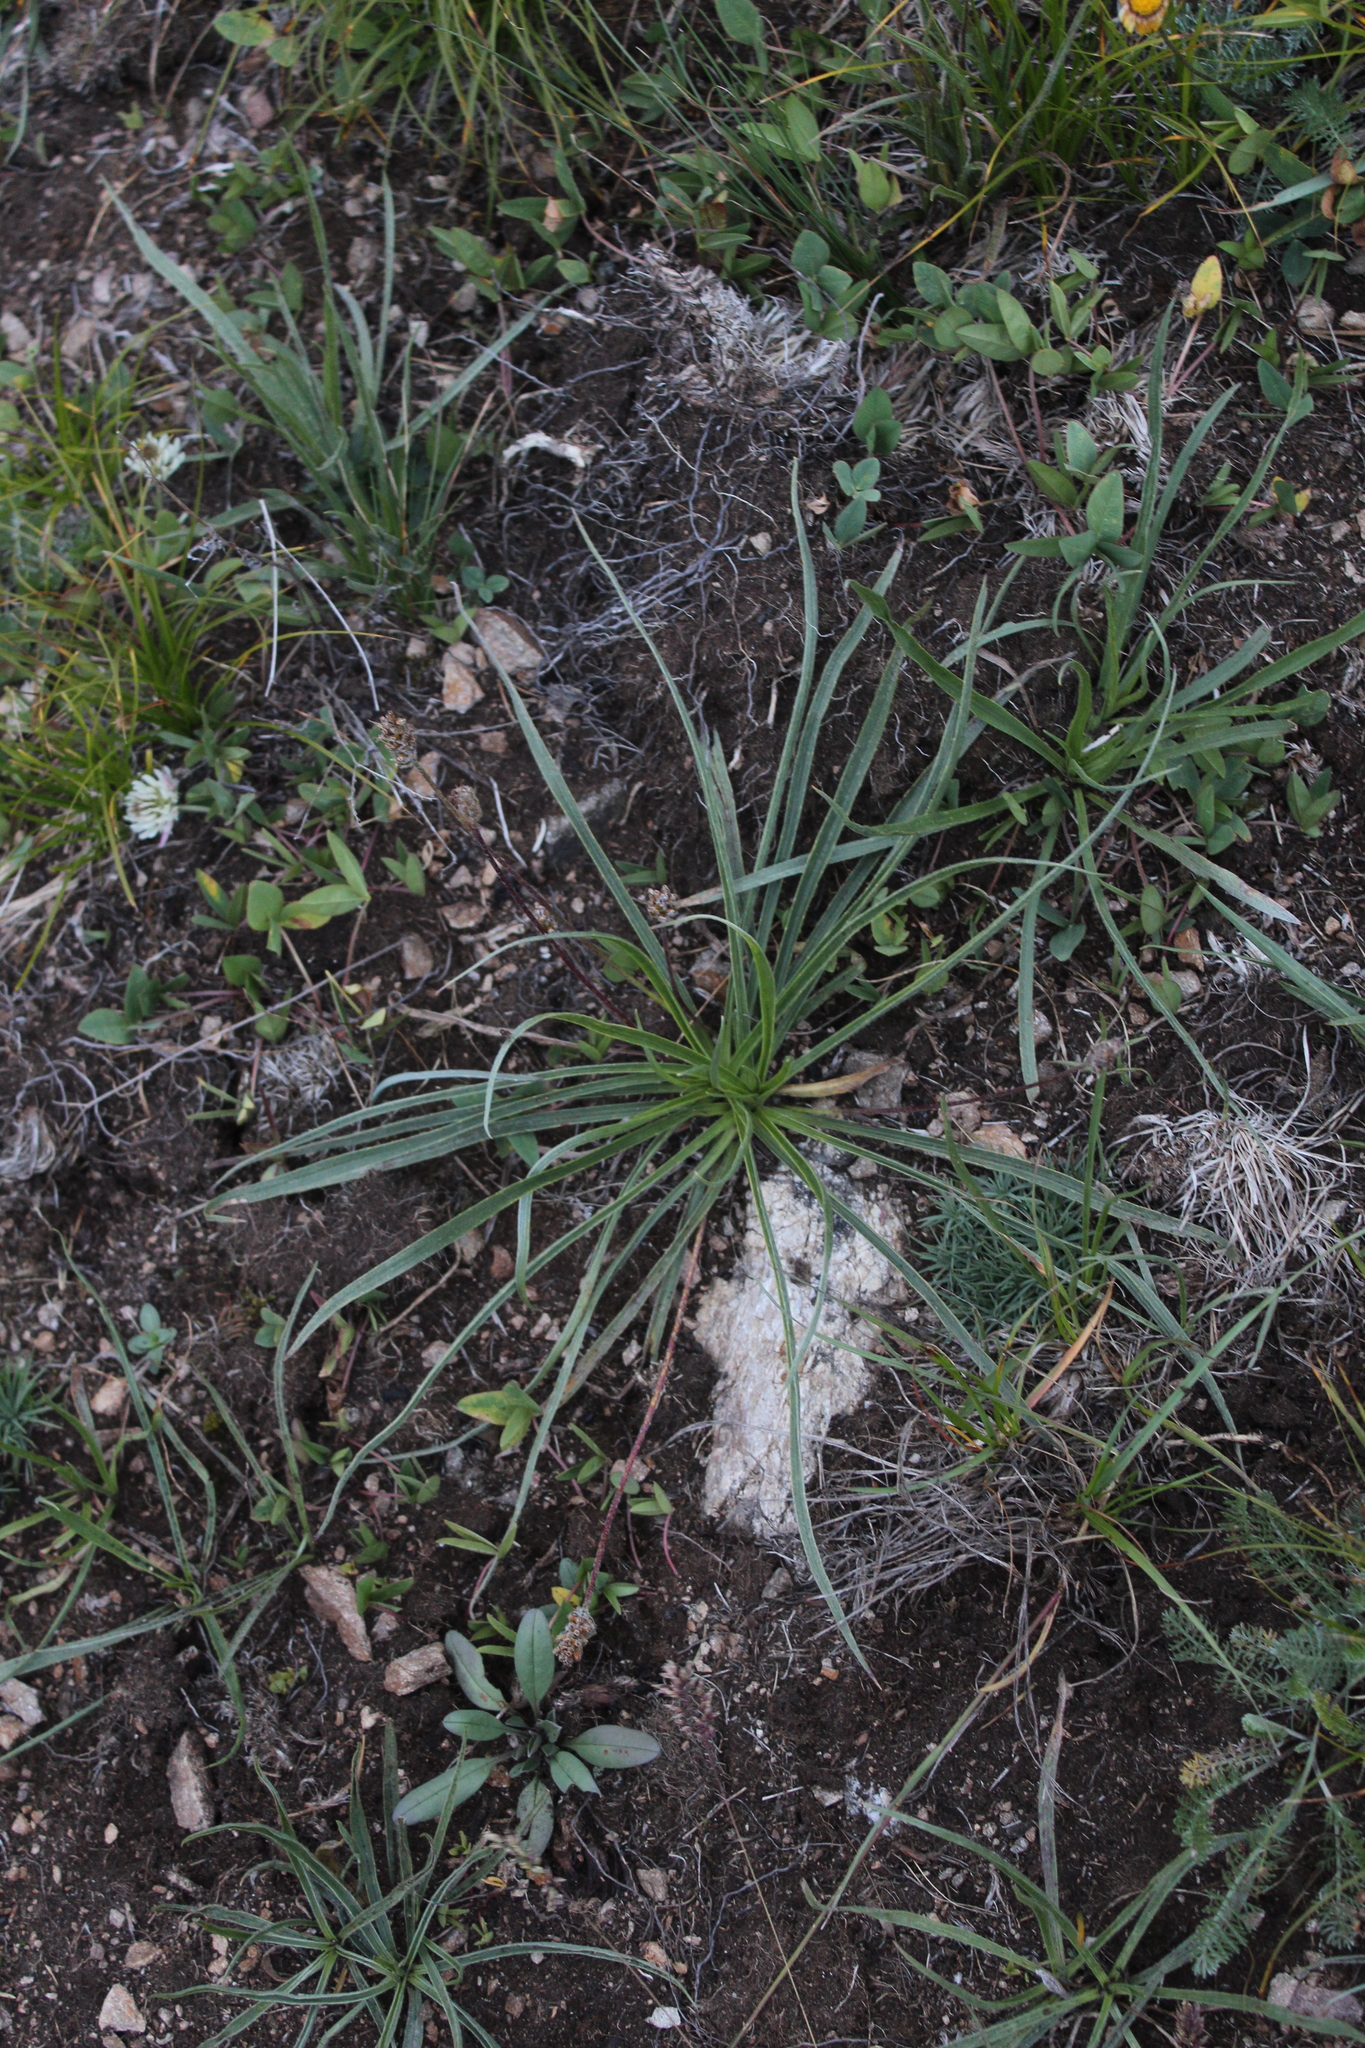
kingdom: Plantae
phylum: Tracheophyta
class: Magnoliopsida
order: Lamiales
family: Plantaginaceae
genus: Plantago
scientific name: Plantago atrata
